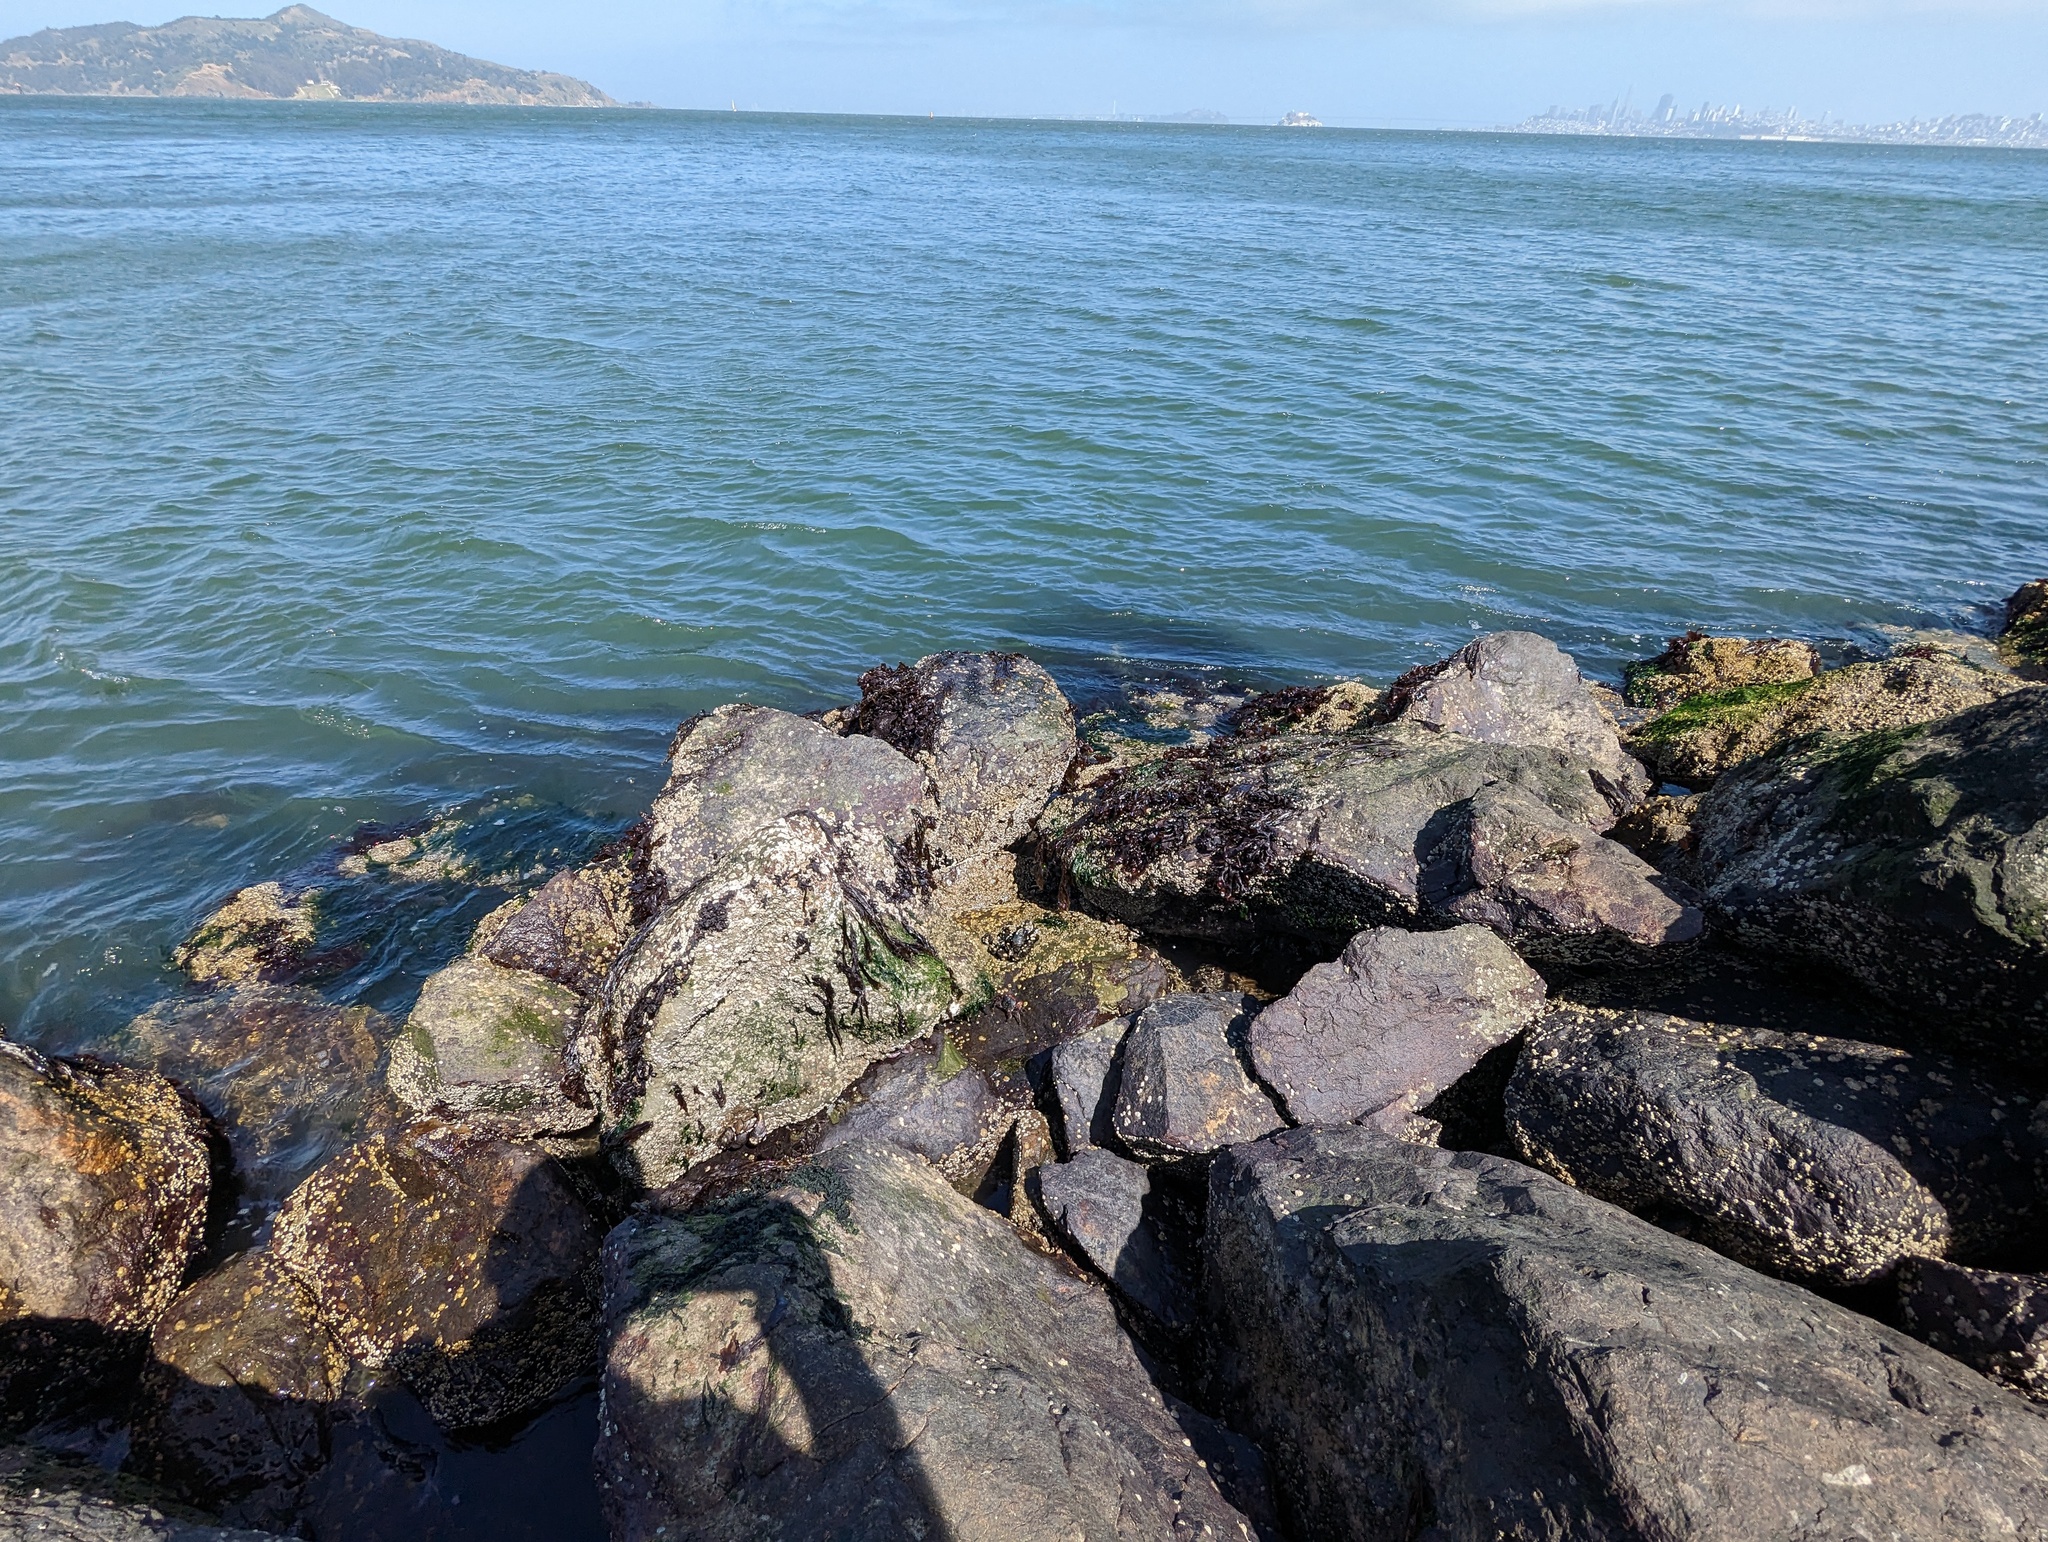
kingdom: Animalia
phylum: Mollusca
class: Bivalvia
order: Mytilida
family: Mytilidae
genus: Mytilus
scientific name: Mytilus californianus
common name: California mussel
